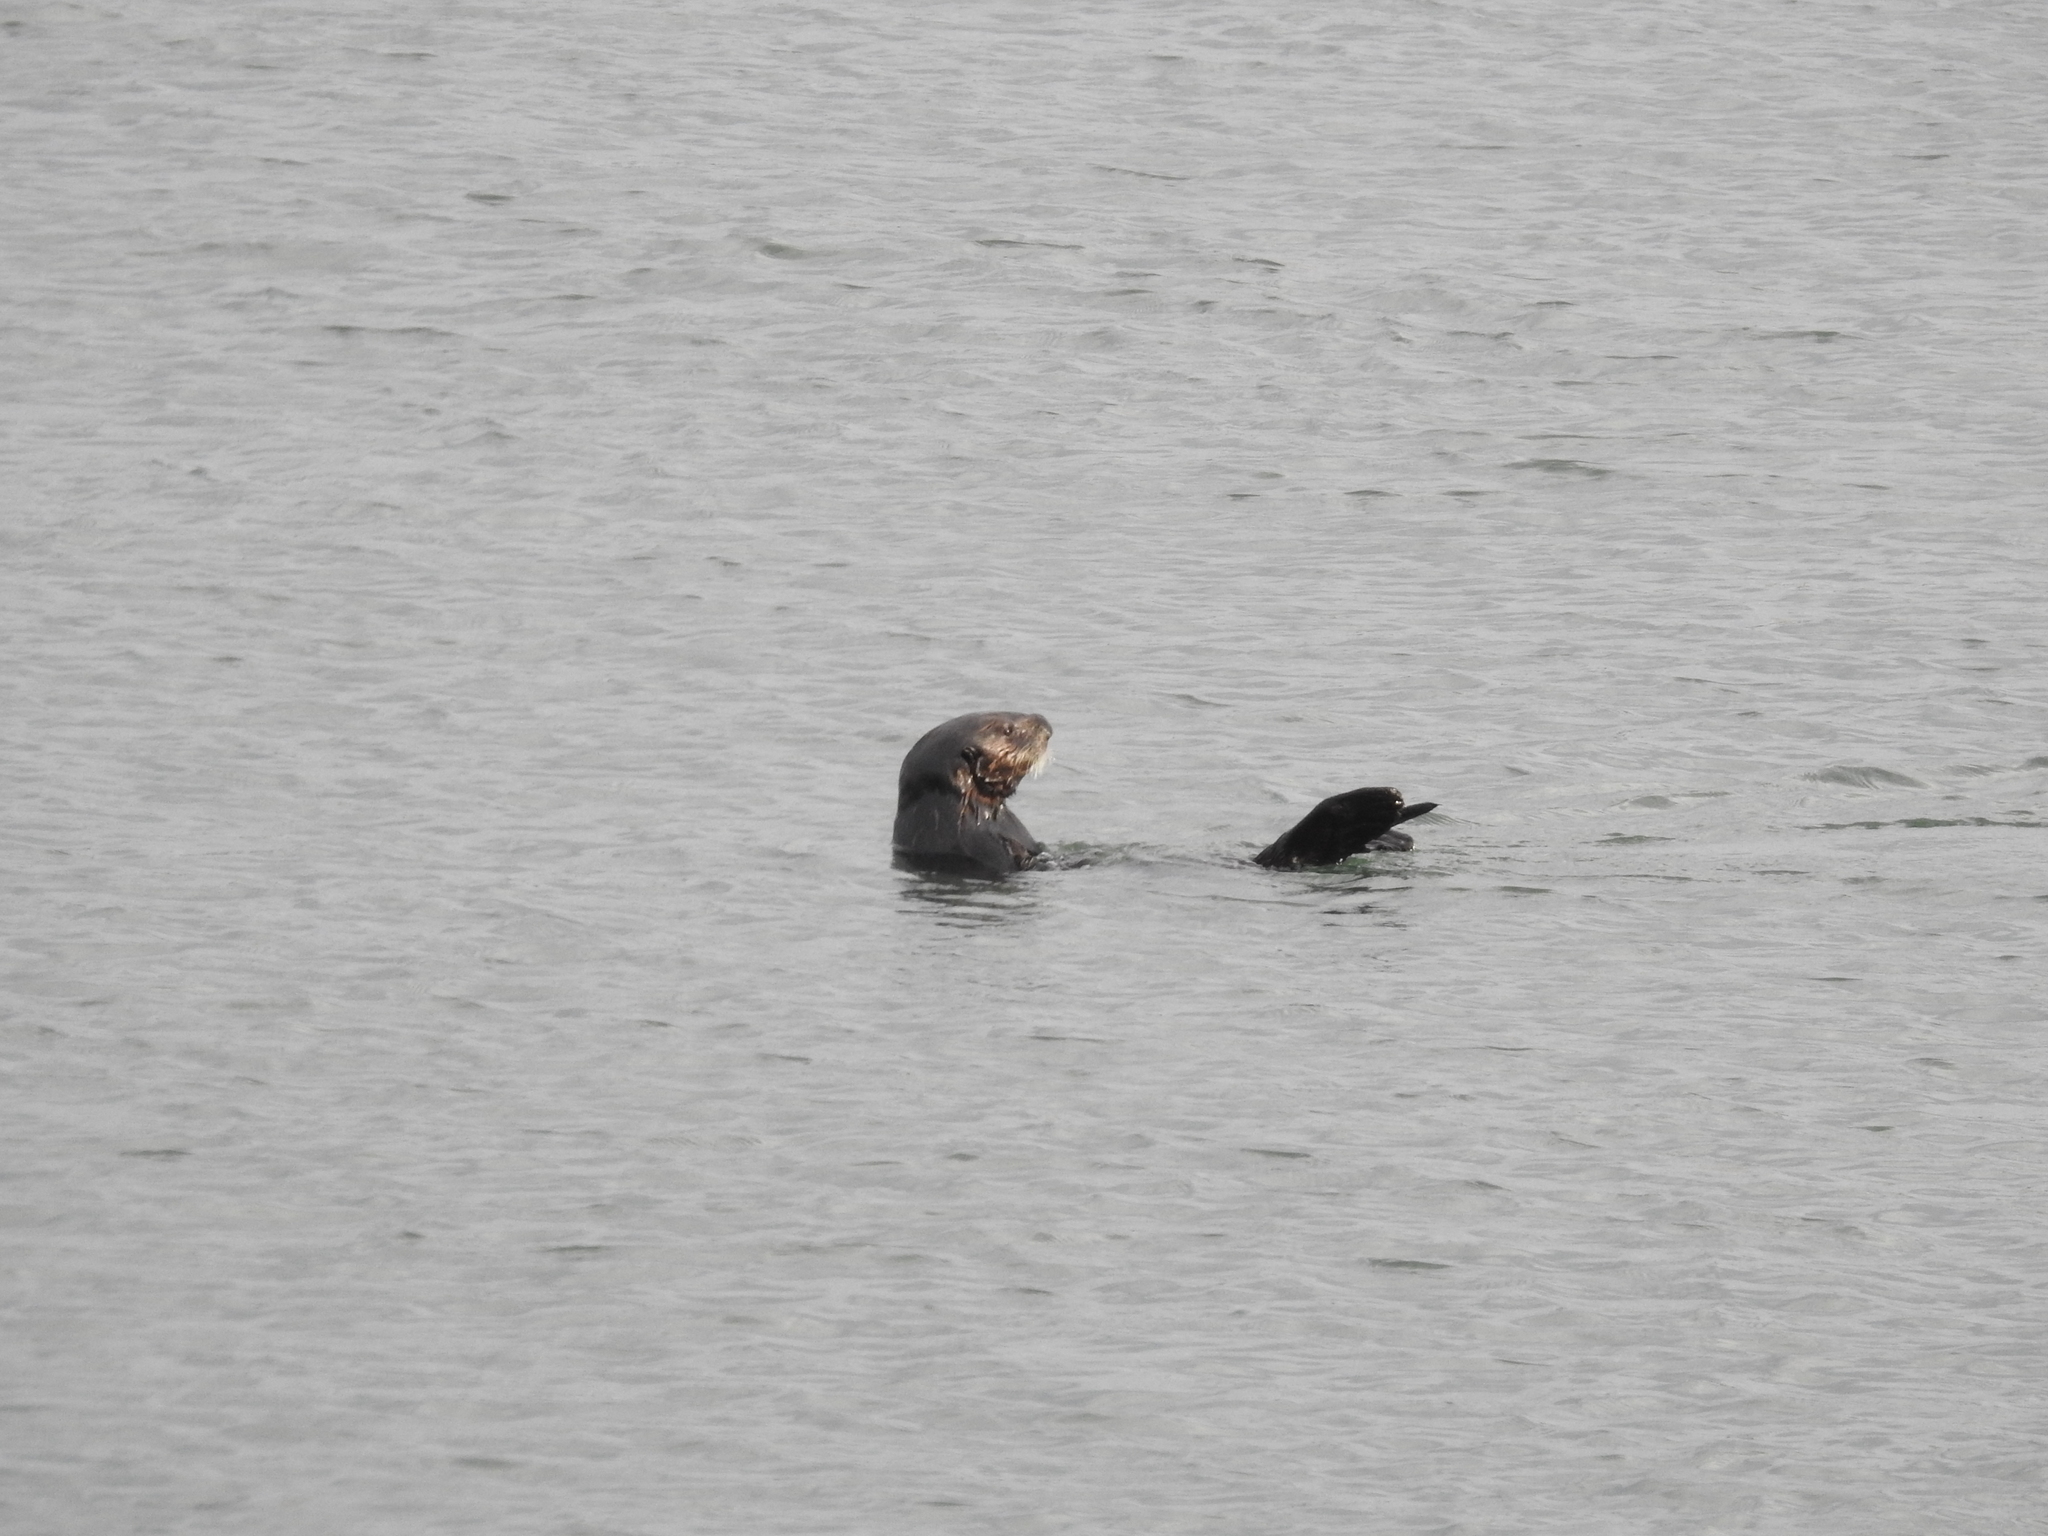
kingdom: Animalia
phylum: Chordata
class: Mammalia
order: Carnivora
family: Mustelidae
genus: Enhydra
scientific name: Enhydra lutris
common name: Sea otter
